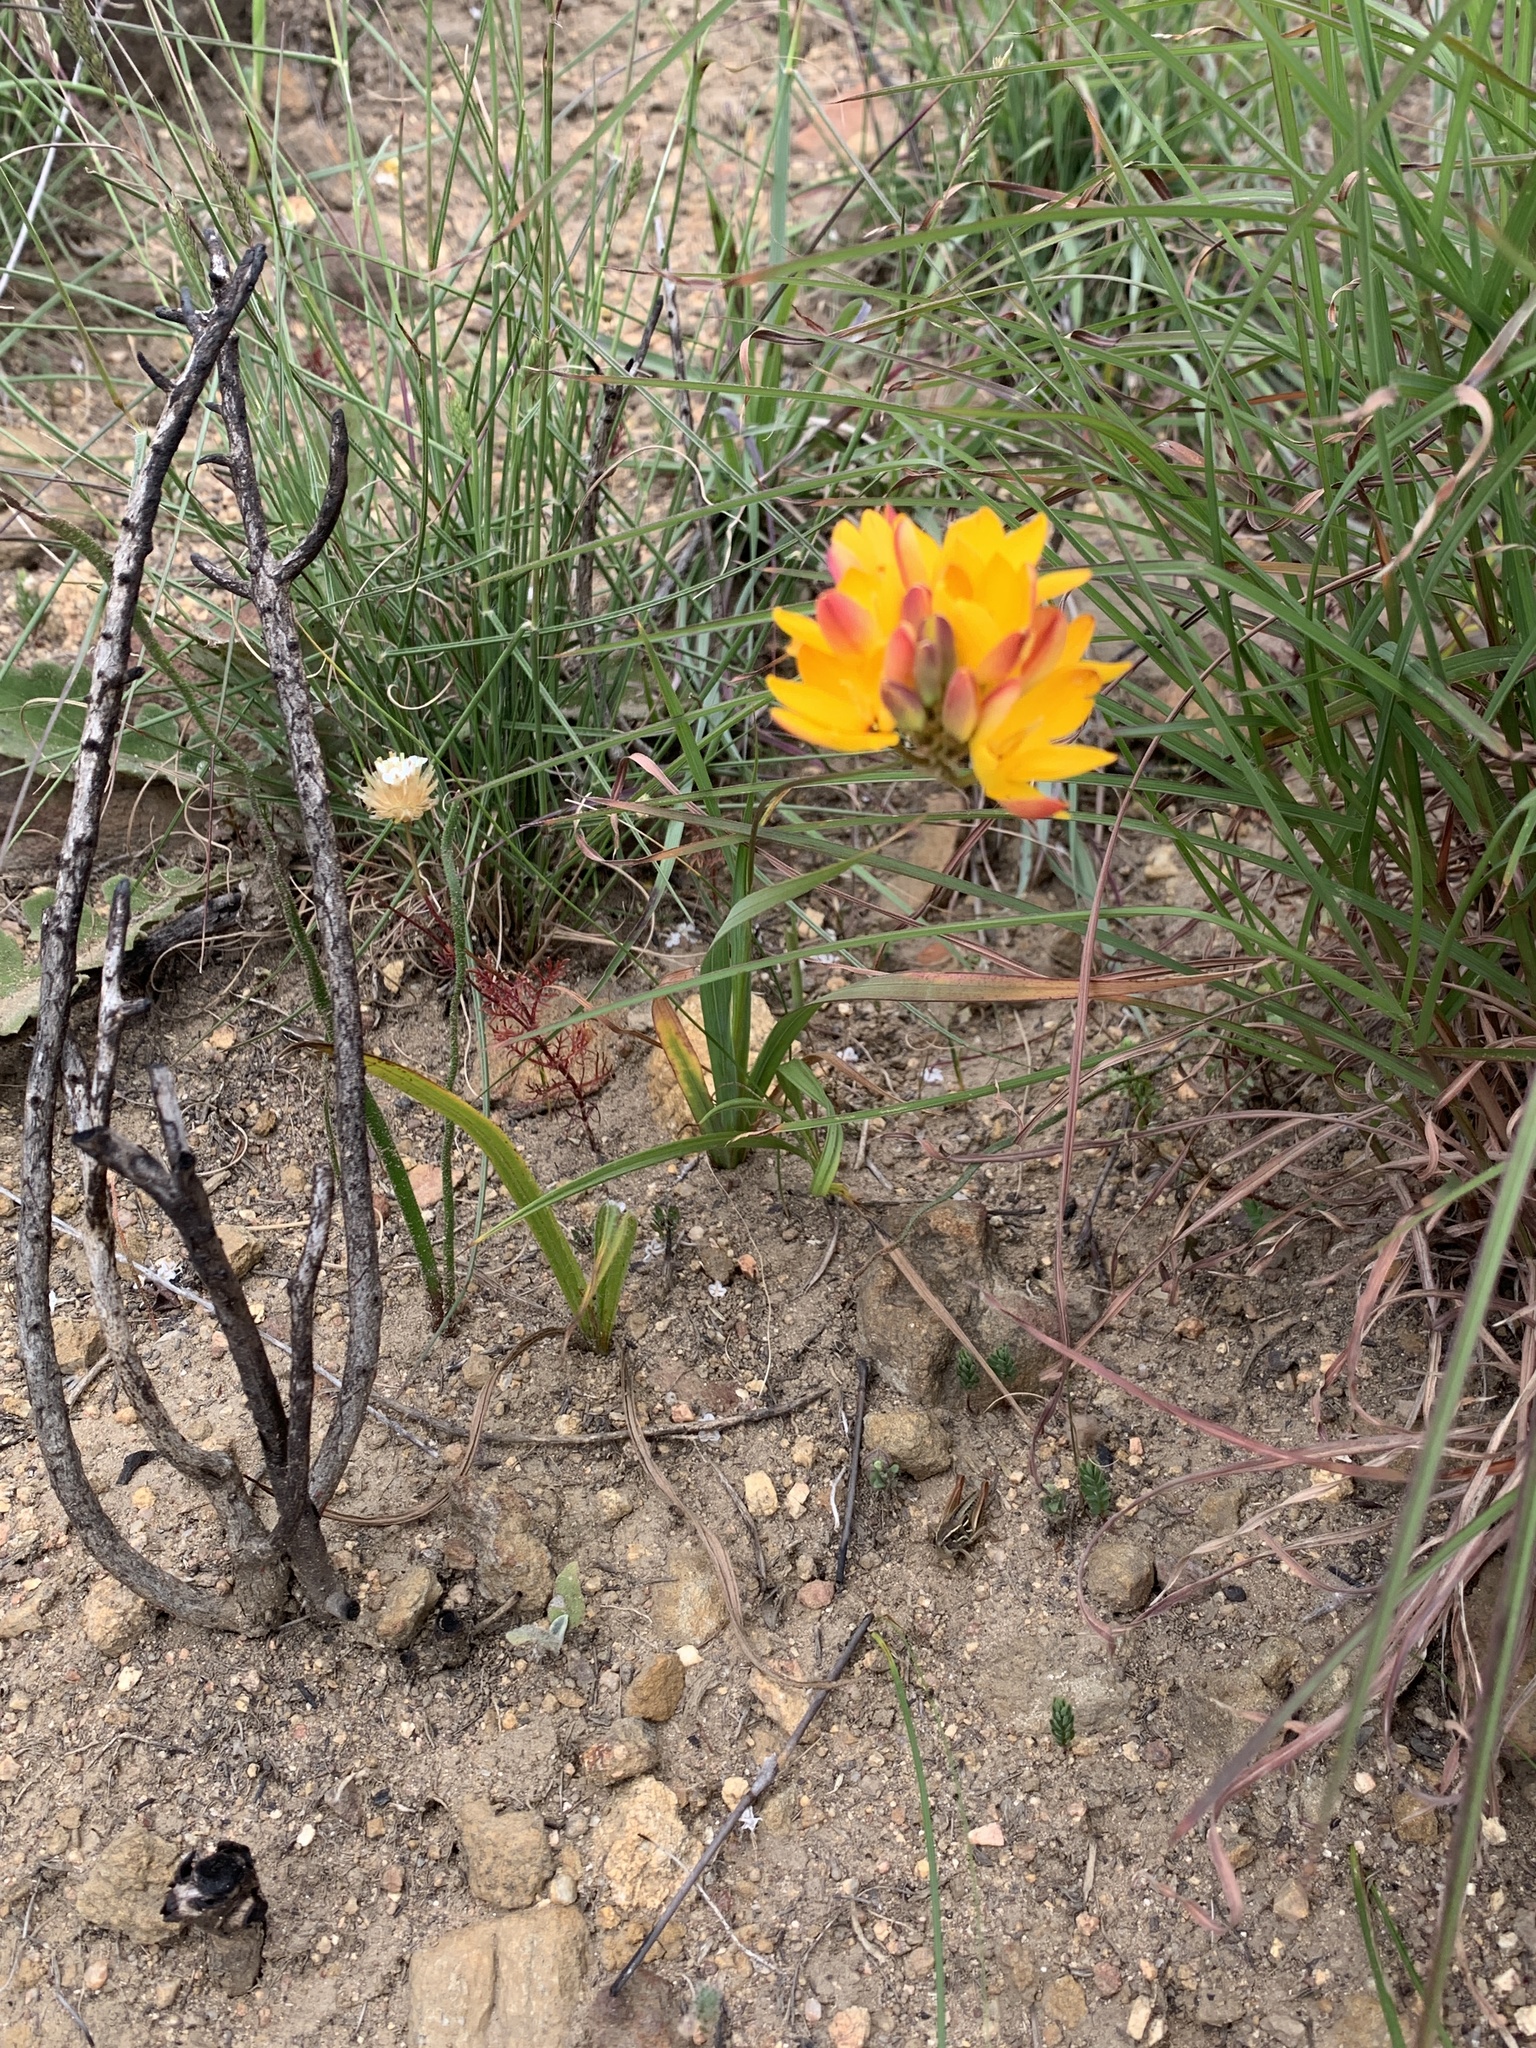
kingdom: Plantae
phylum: Tracheophyta
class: Liliopsida
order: Asparagales
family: Iridaceae
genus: Ixia
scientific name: Ixia dubia
